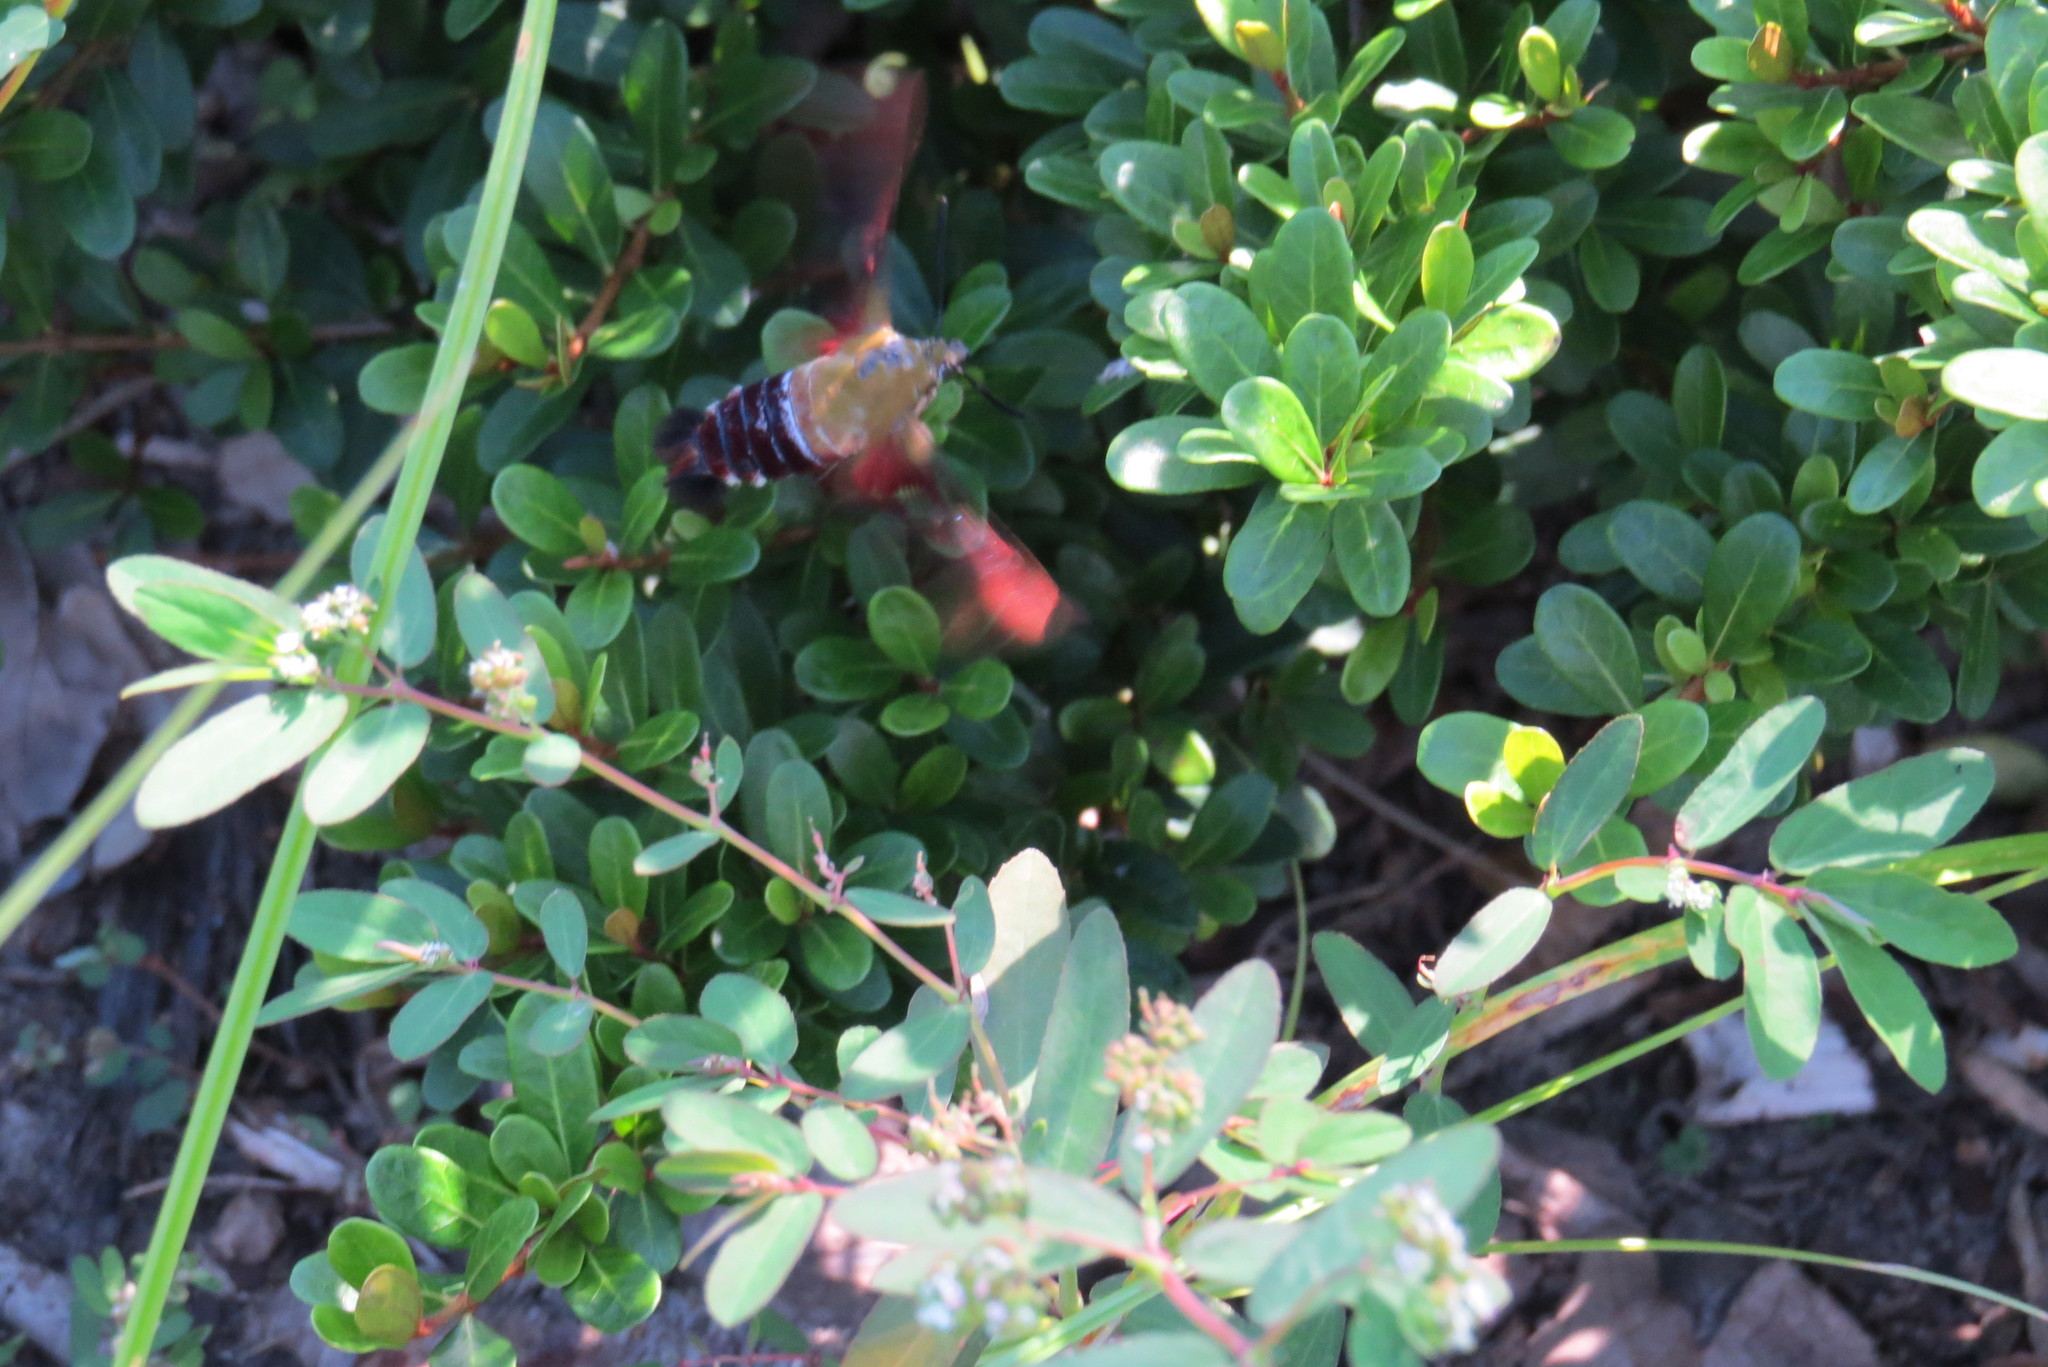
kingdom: Animalia
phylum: Arthropoda
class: Insecta
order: Lepidoptera
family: Sphingidae
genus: Hemaris
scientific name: Hemaris thysbe
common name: Common clear-wing
